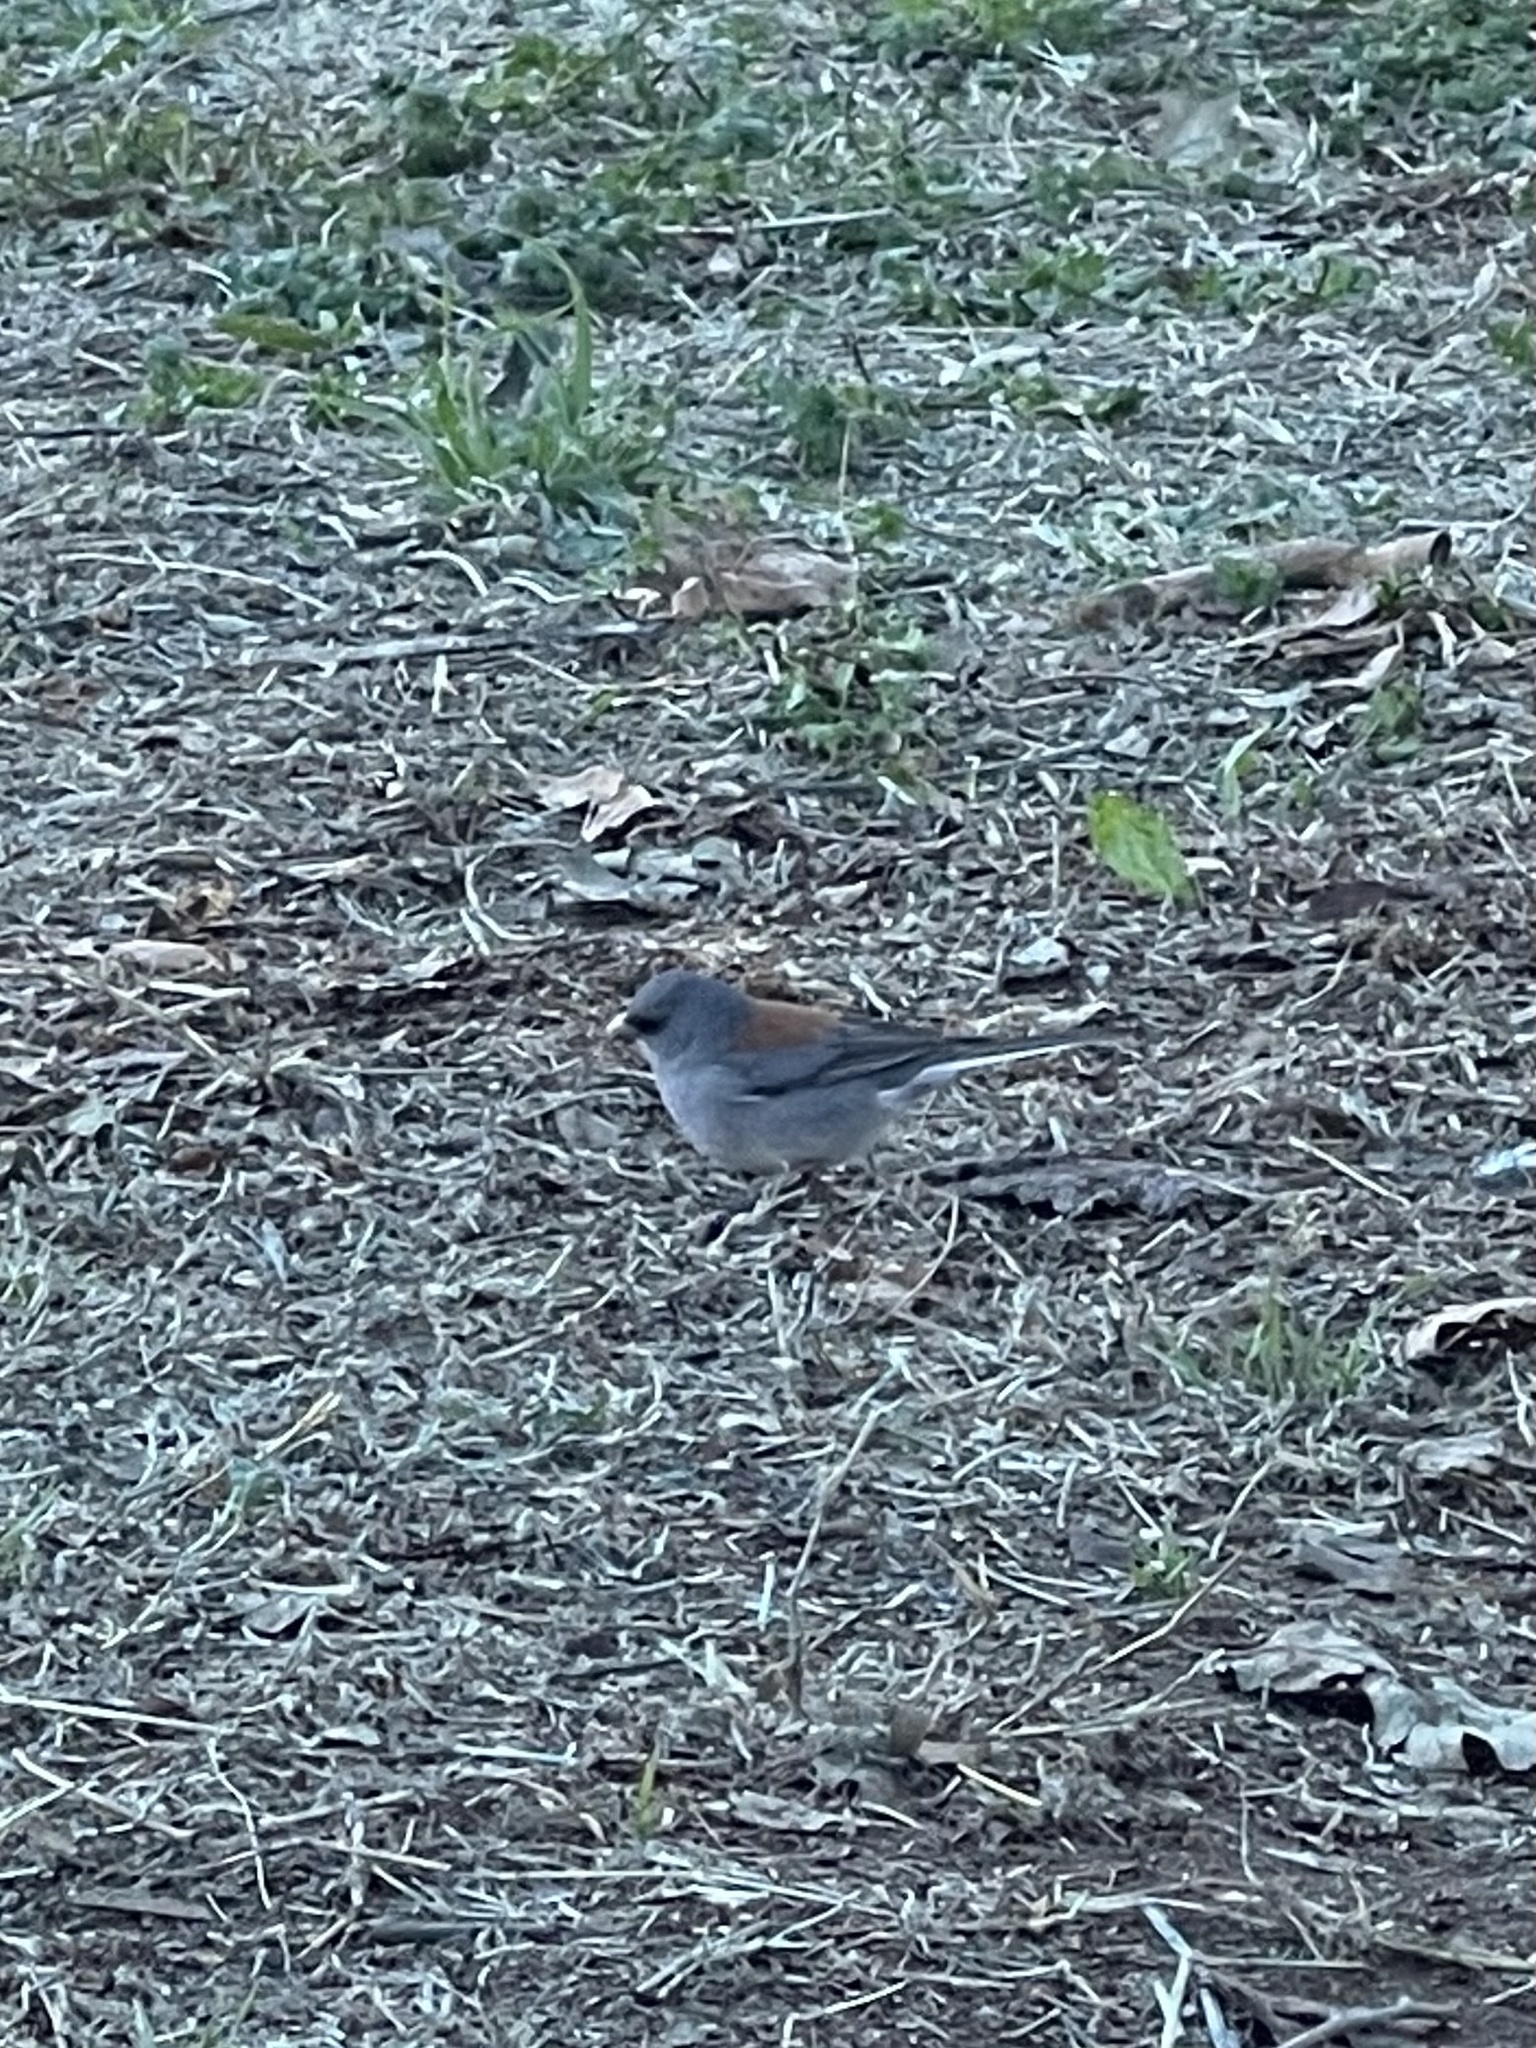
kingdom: Animalia
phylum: Chordata
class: Aves
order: Passeriformes
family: Passerellidae
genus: Junco
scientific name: Junco hyemalis
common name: Dark-eyed junco
